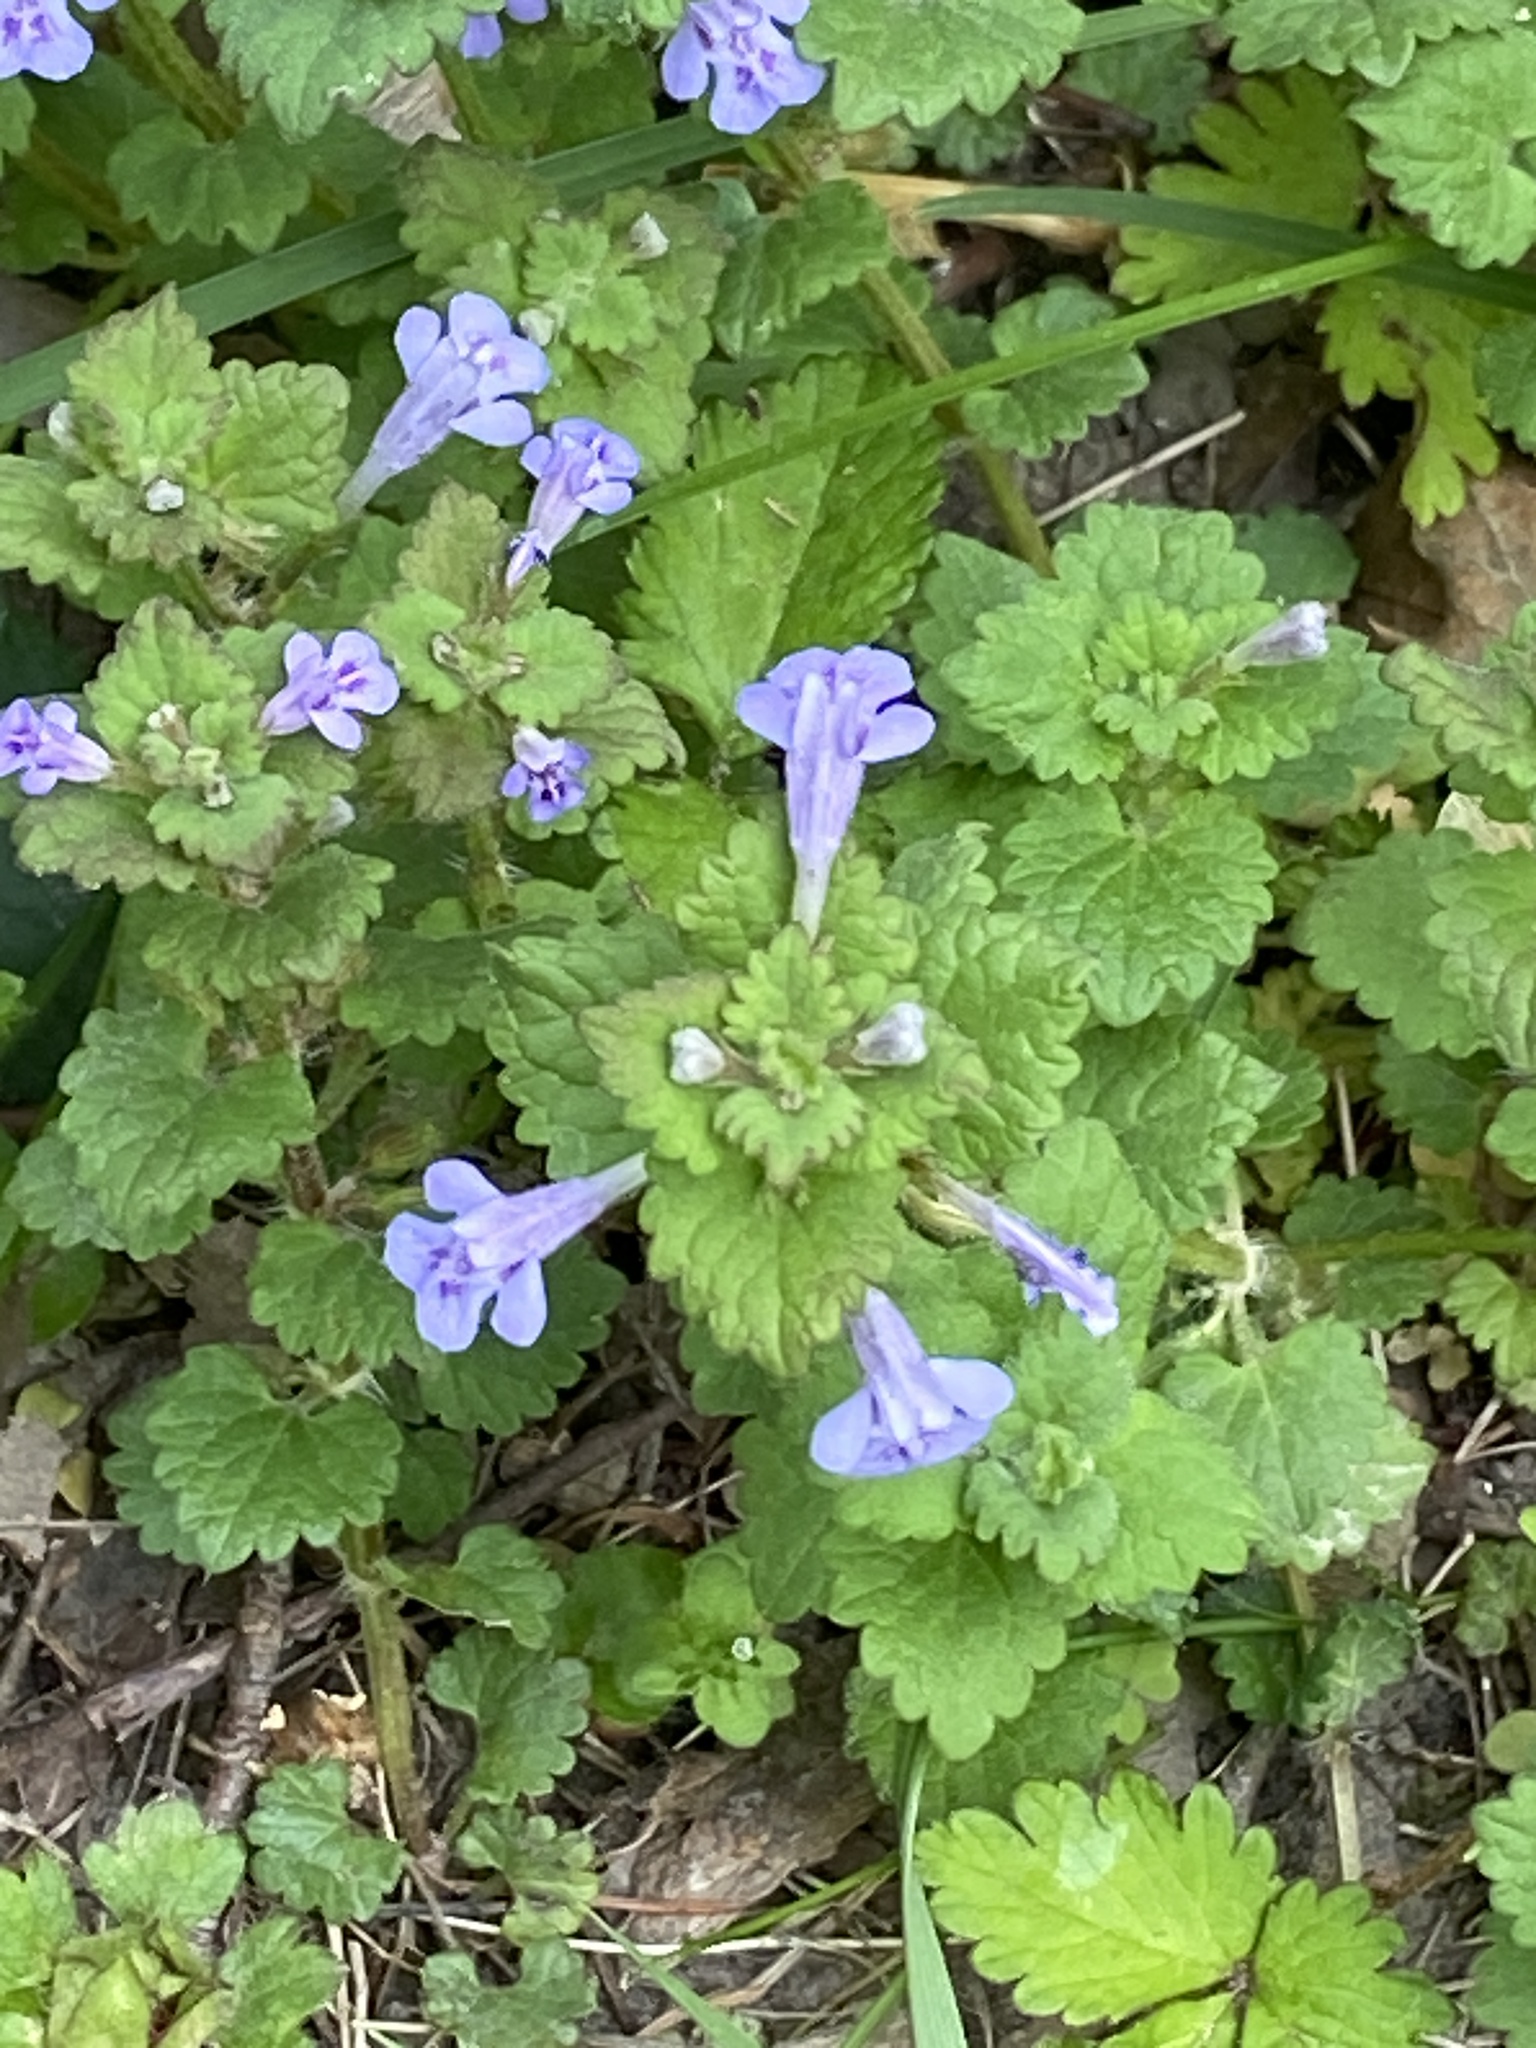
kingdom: Plantae
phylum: Tracheophyta
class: Magnoliopsida
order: Lamiales
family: Lamiaceae
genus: Glechoma
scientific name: Glechoma hederacea
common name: Ground ivy
